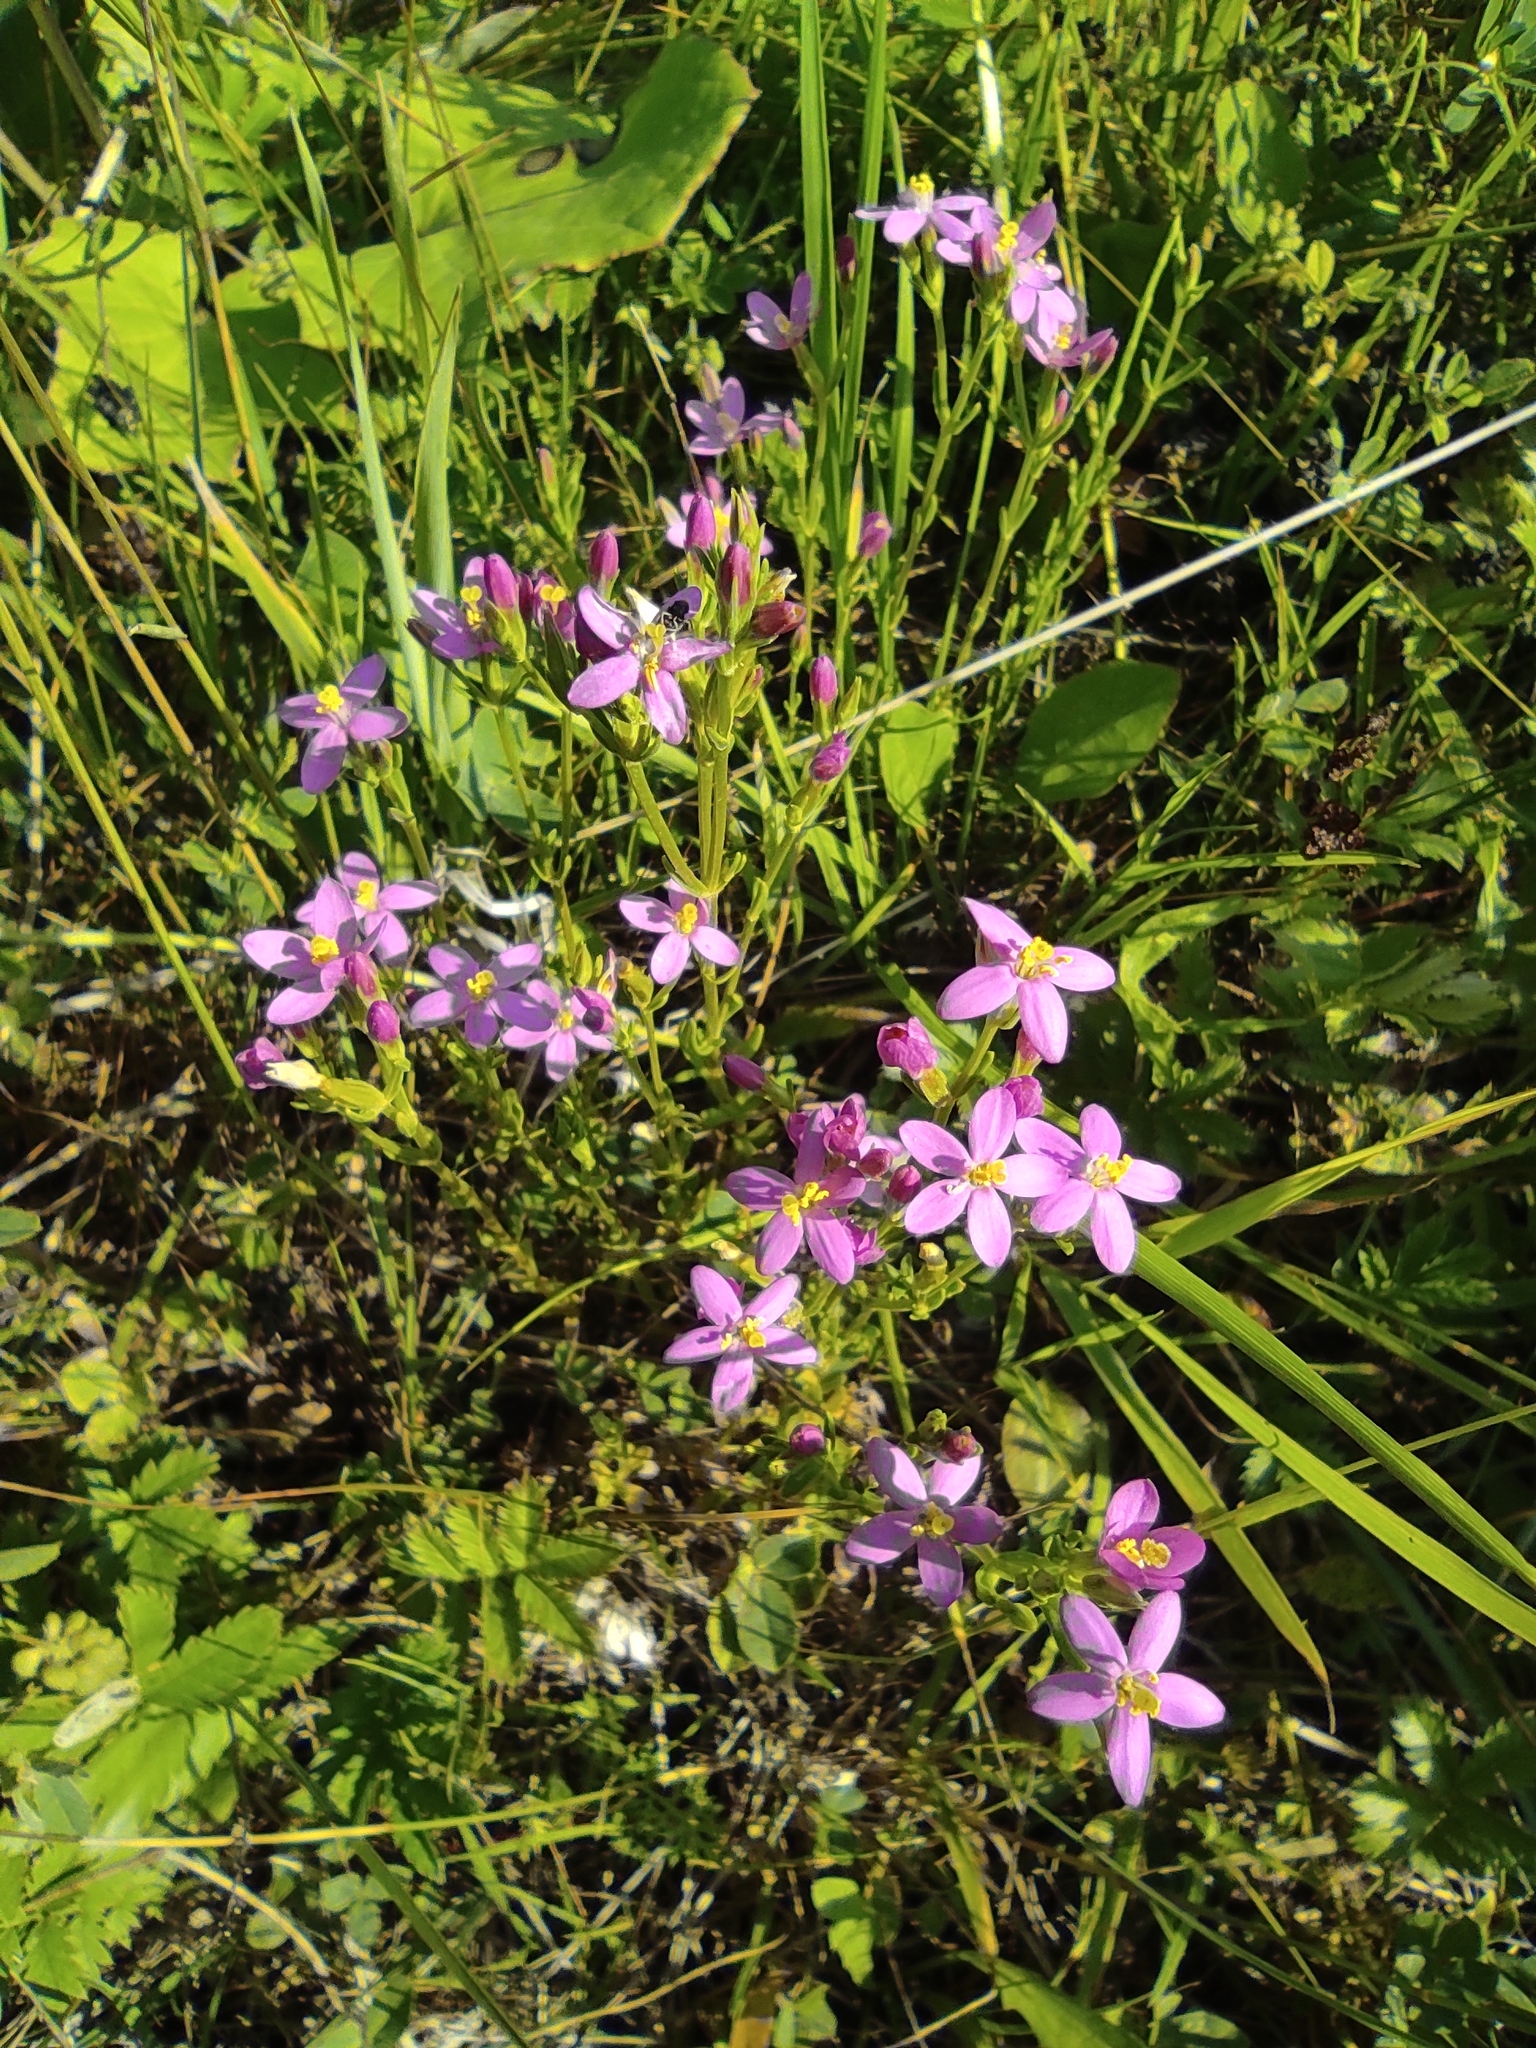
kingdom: Plantae
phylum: Tracheophyta
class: Magnoliopsida
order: Gentianales
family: Gentianaceae
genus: Centaurium
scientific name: Centaurium pulchellum
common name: Lesser centaury
